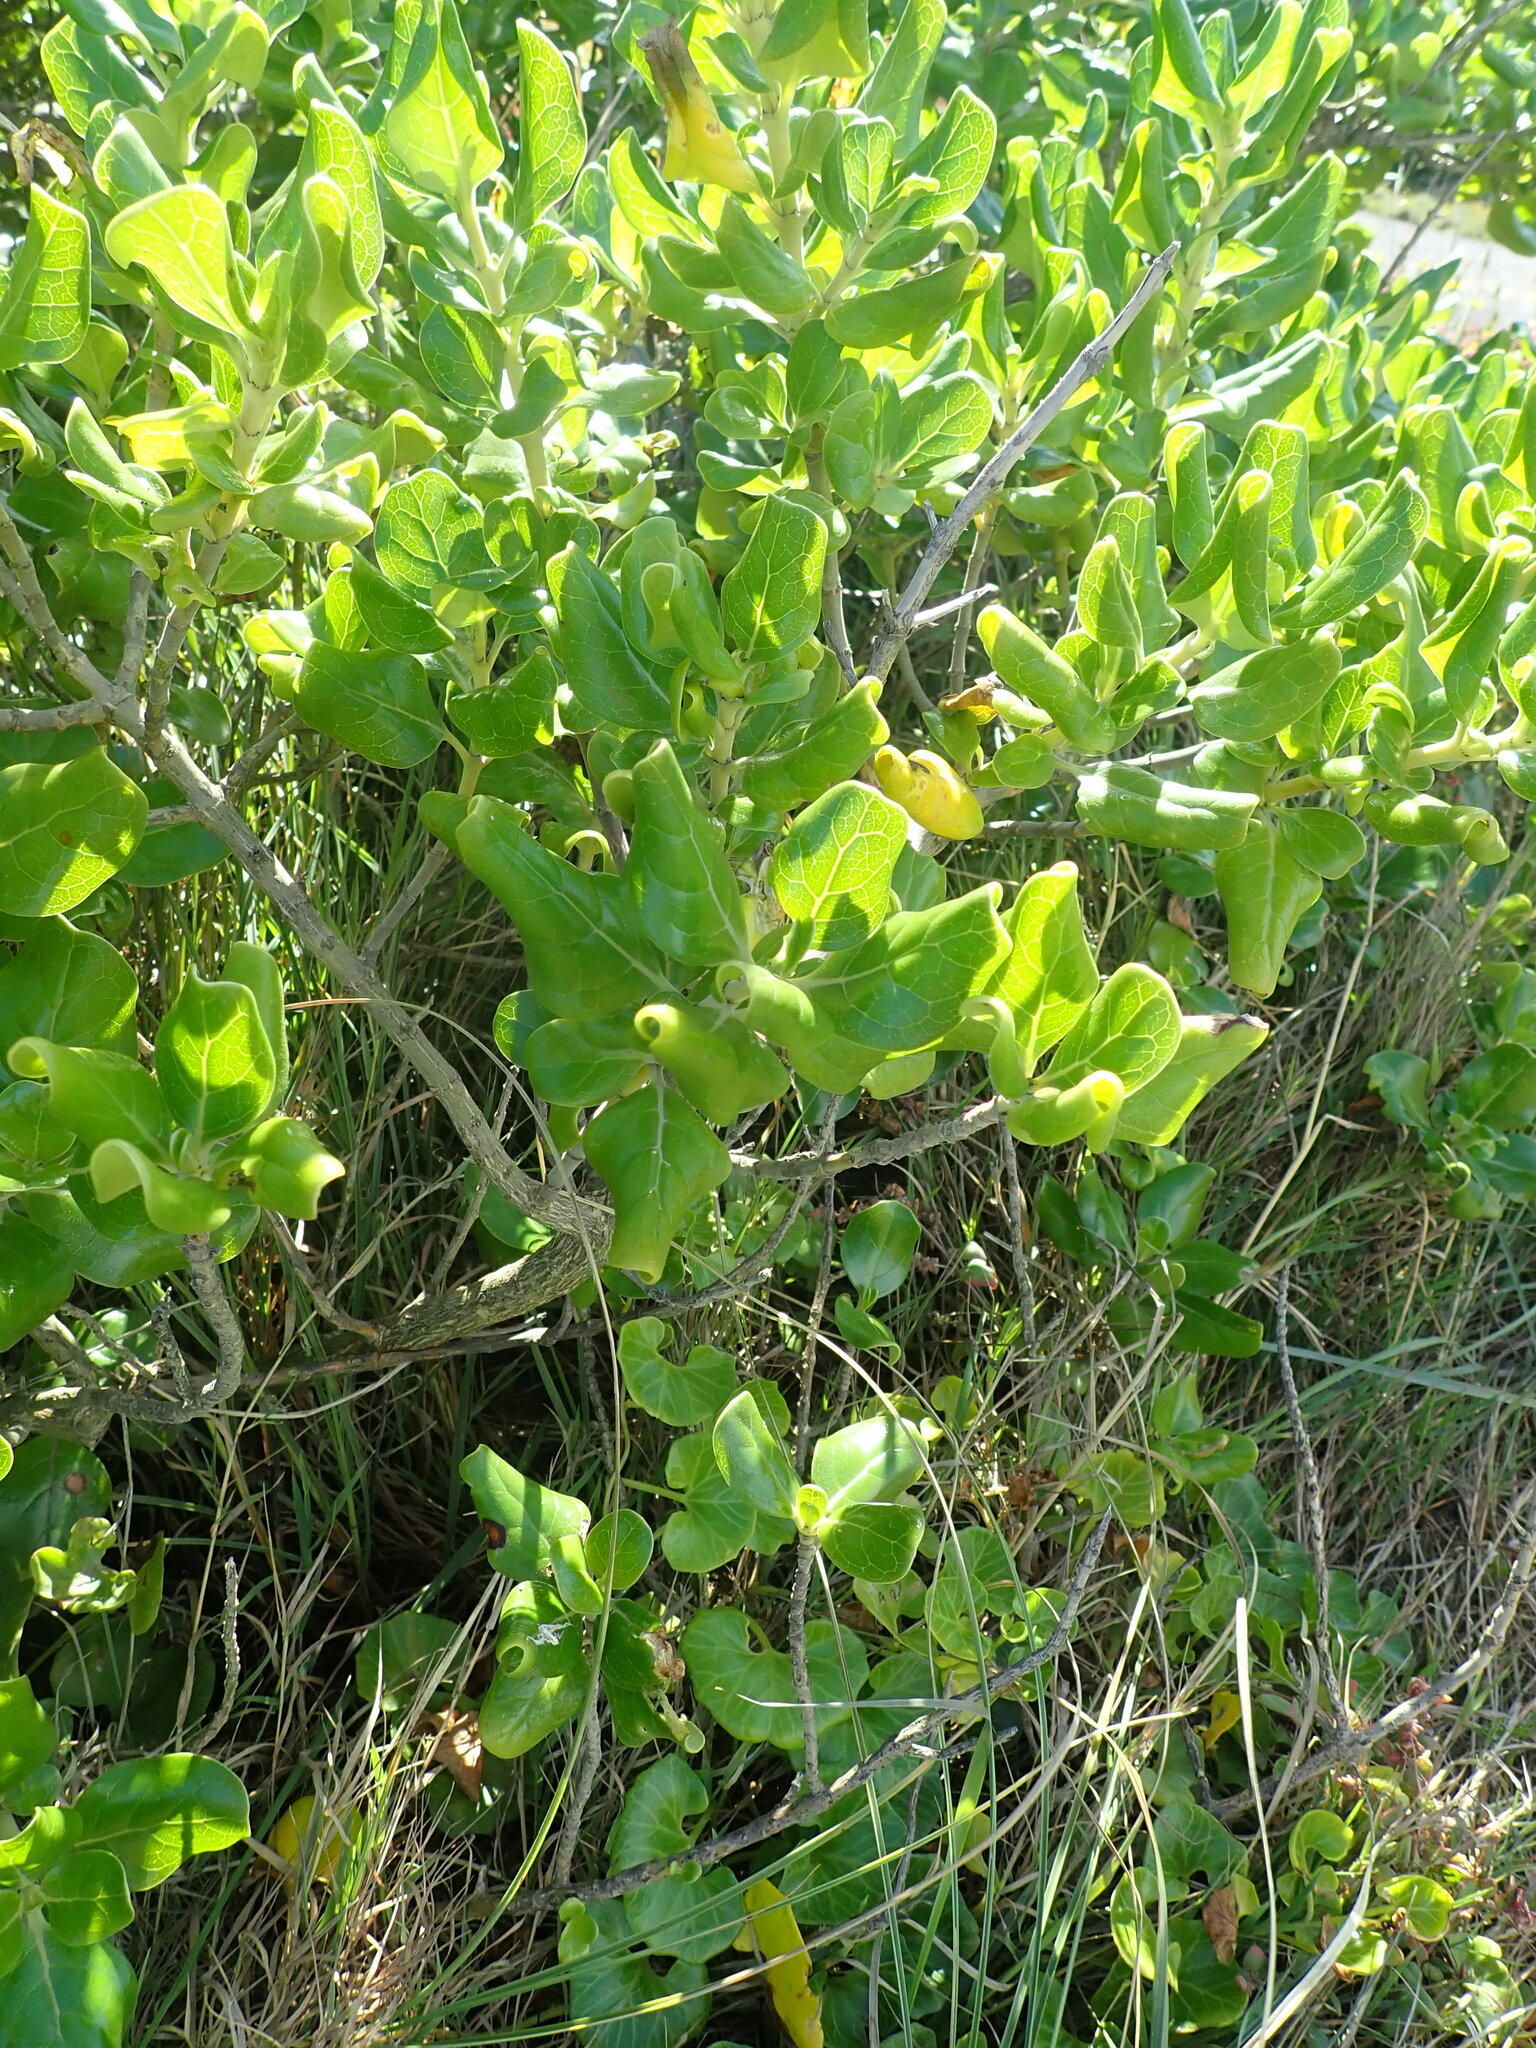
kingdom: Plantae
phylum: Tracheophyta
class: Magnoliopsida
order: Gentianales
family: Rubiaceae
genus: Coprosma
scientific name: Coprosma repens
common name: Tree bedstraw
